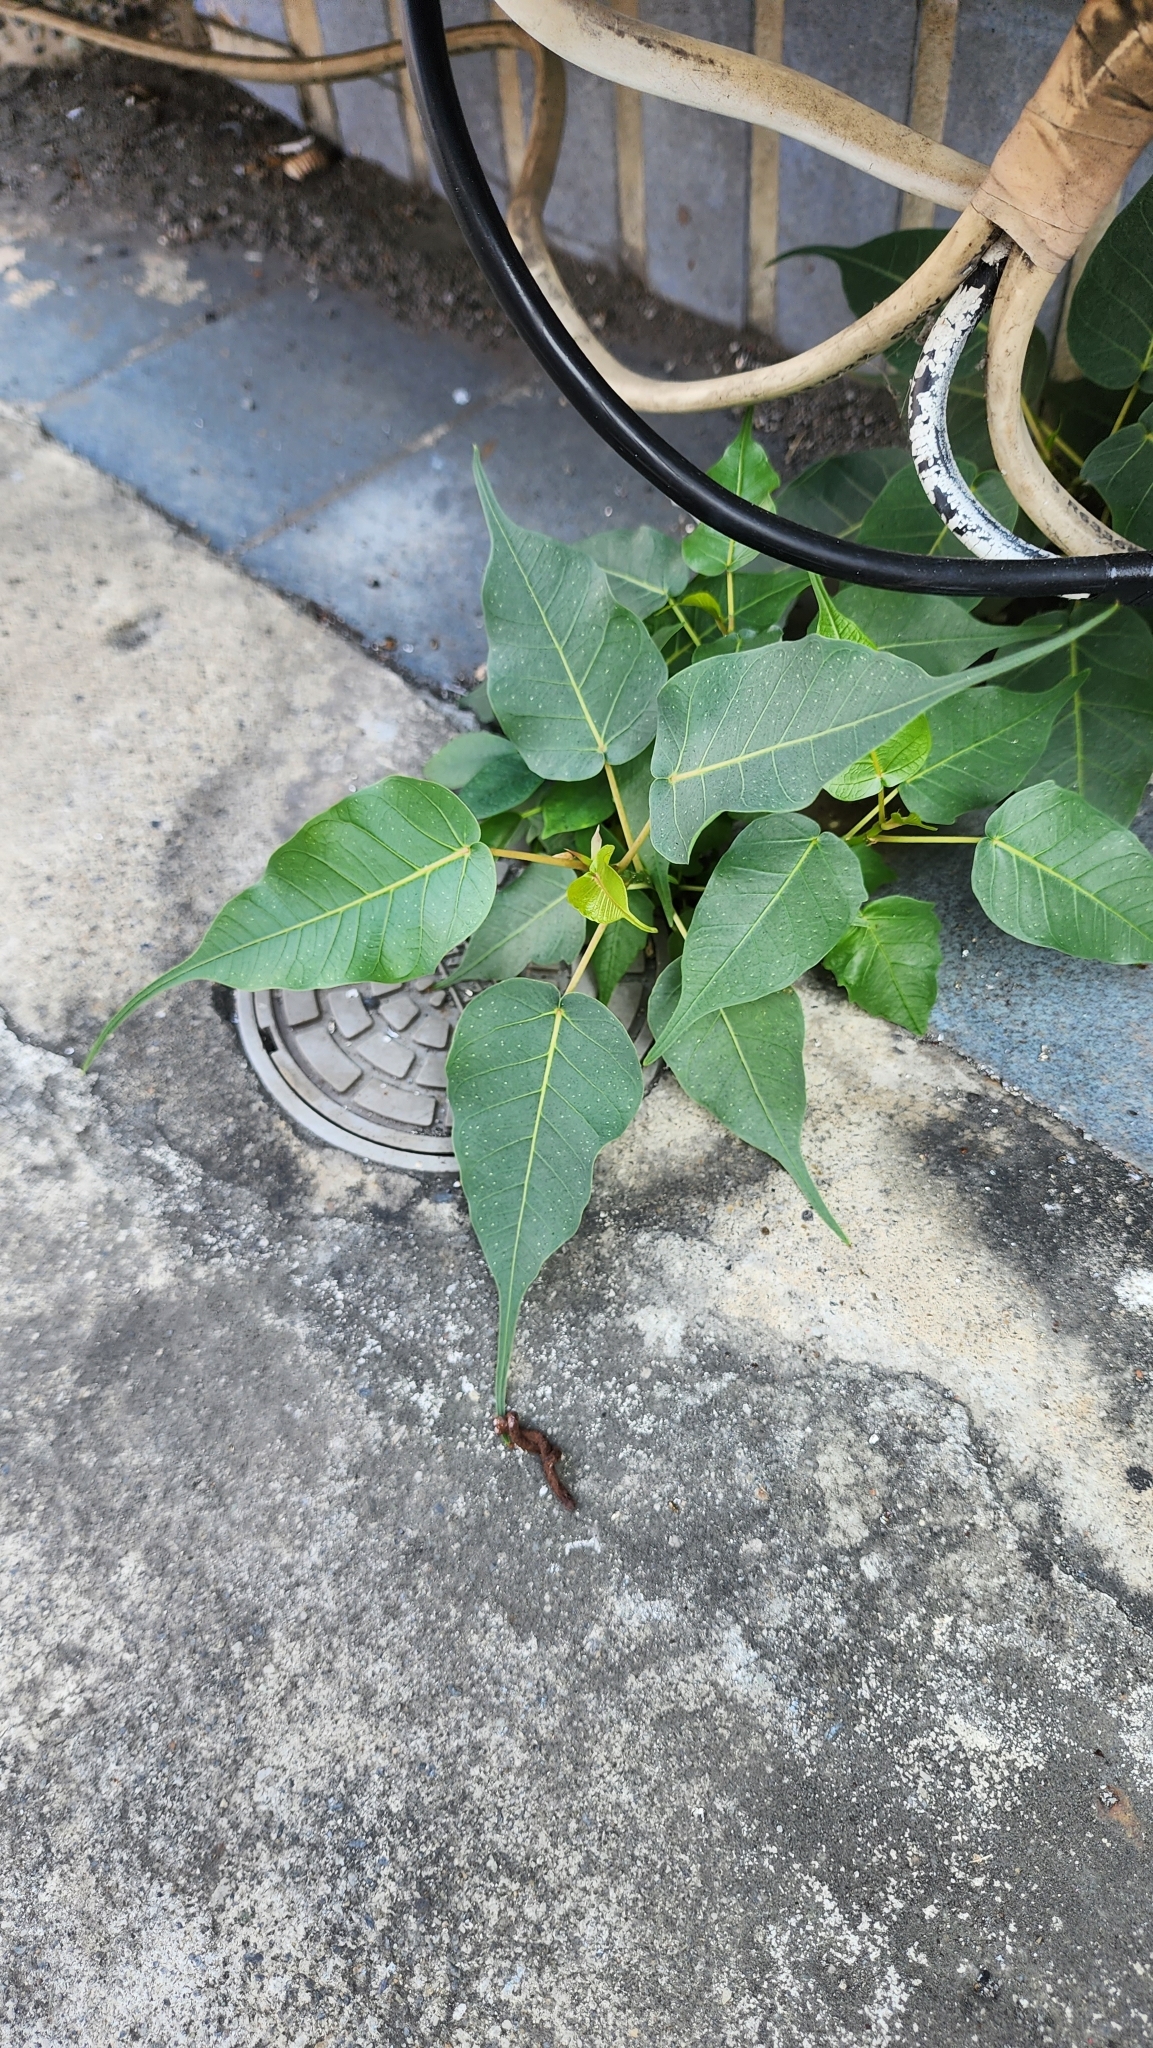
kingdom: Plantae
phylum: Tracheophyta
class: Magnoliopsida
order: Rosales
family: Moraceae
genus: Ficus
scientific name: Ficus religiosa
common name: Bodhi tree
